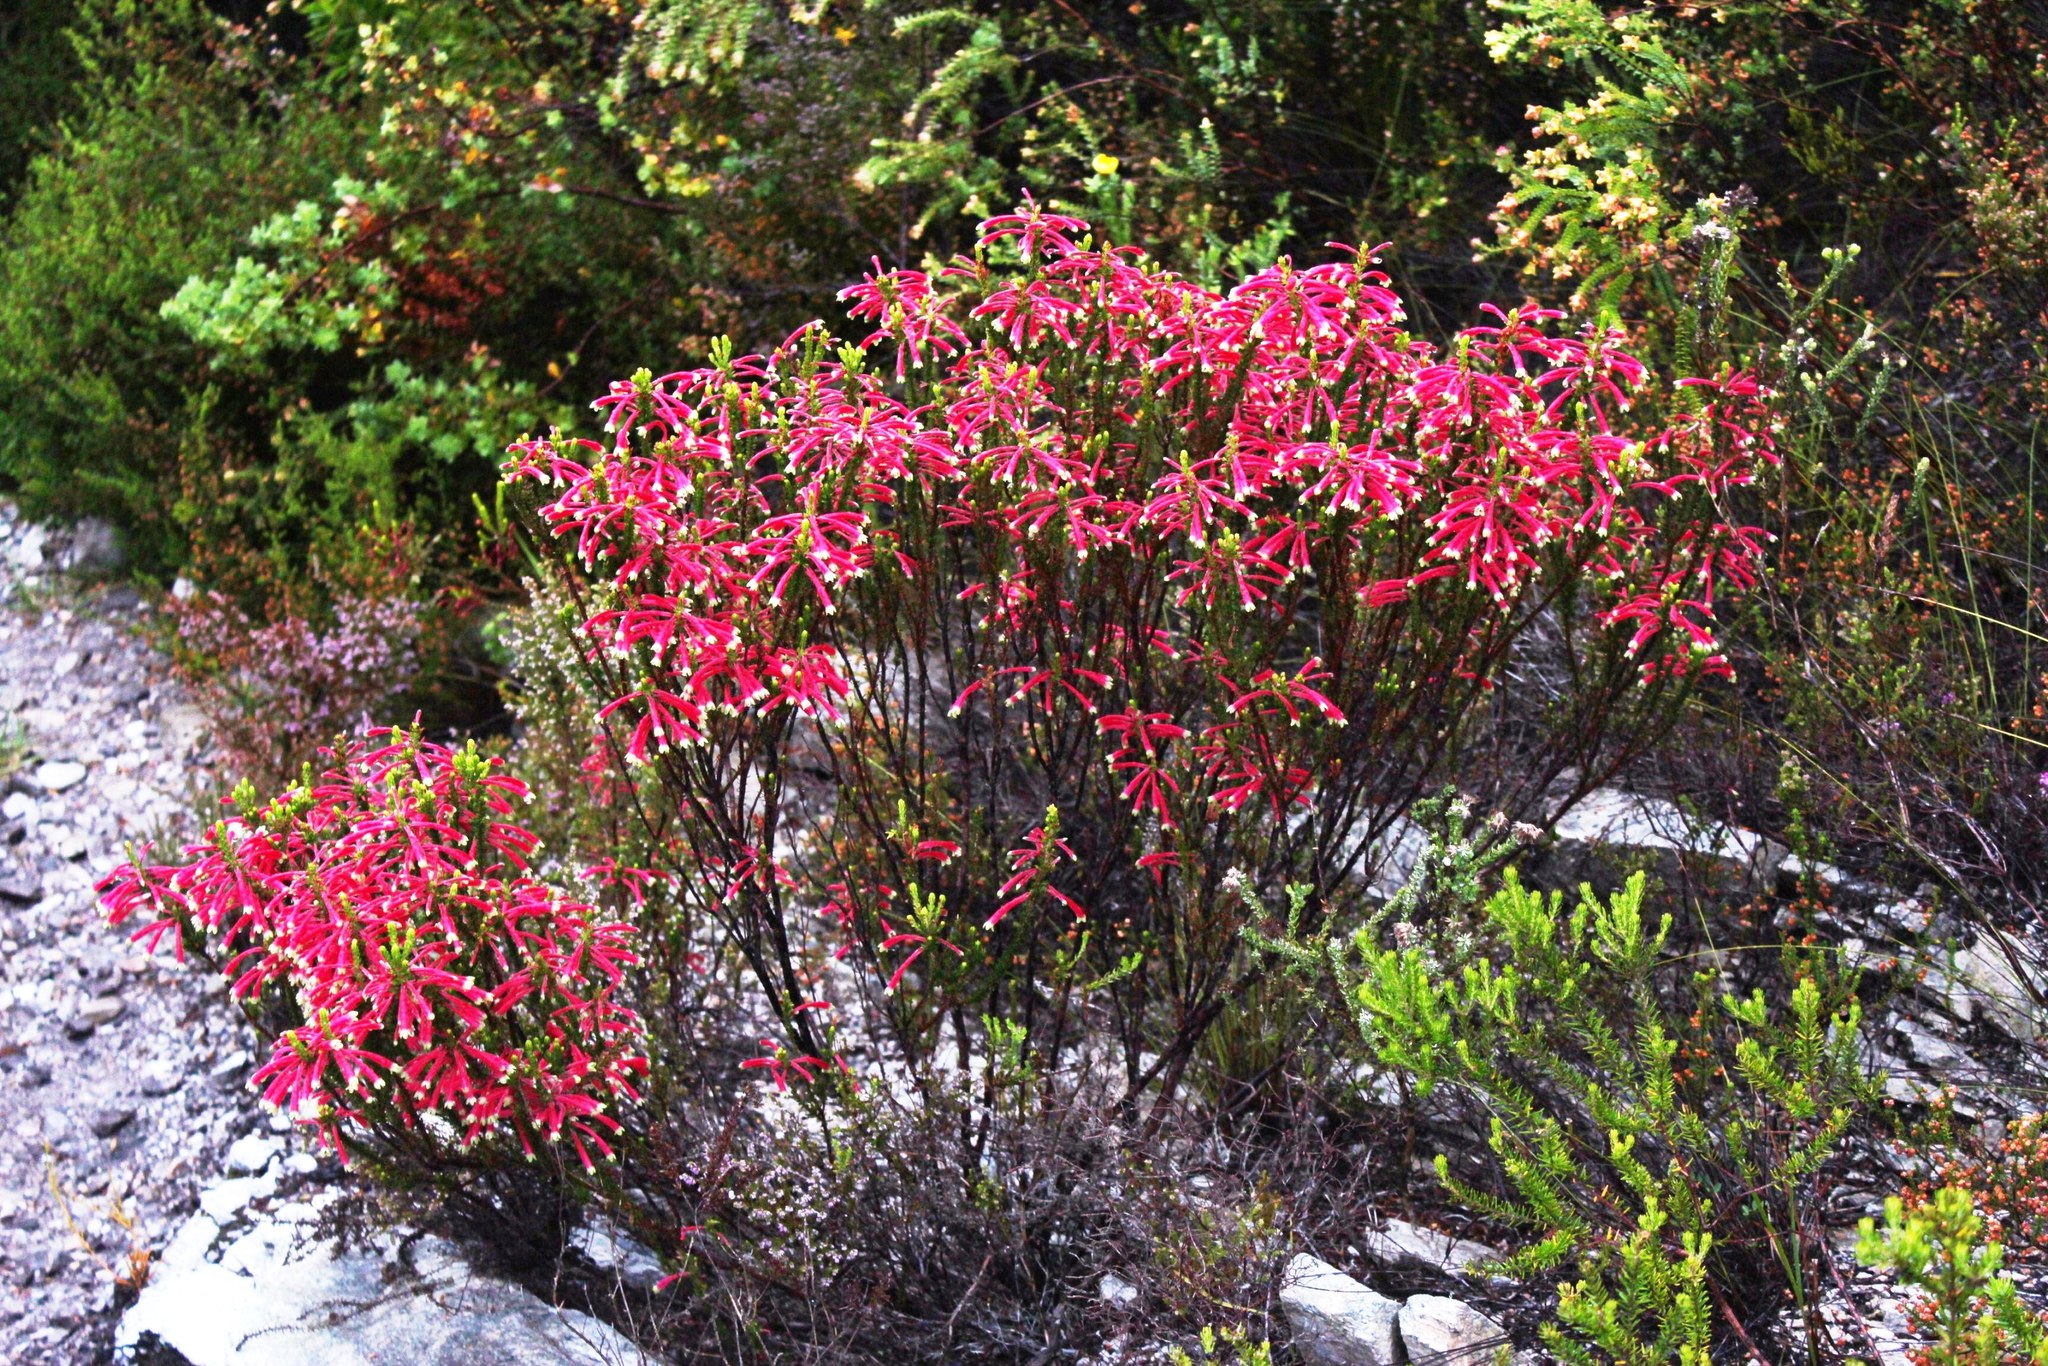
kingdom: Plantae
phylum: Tracheophyta
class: Magnoliopsida
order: Ericales
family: Ericaceae
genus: Erica
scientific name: Erica densifolia
